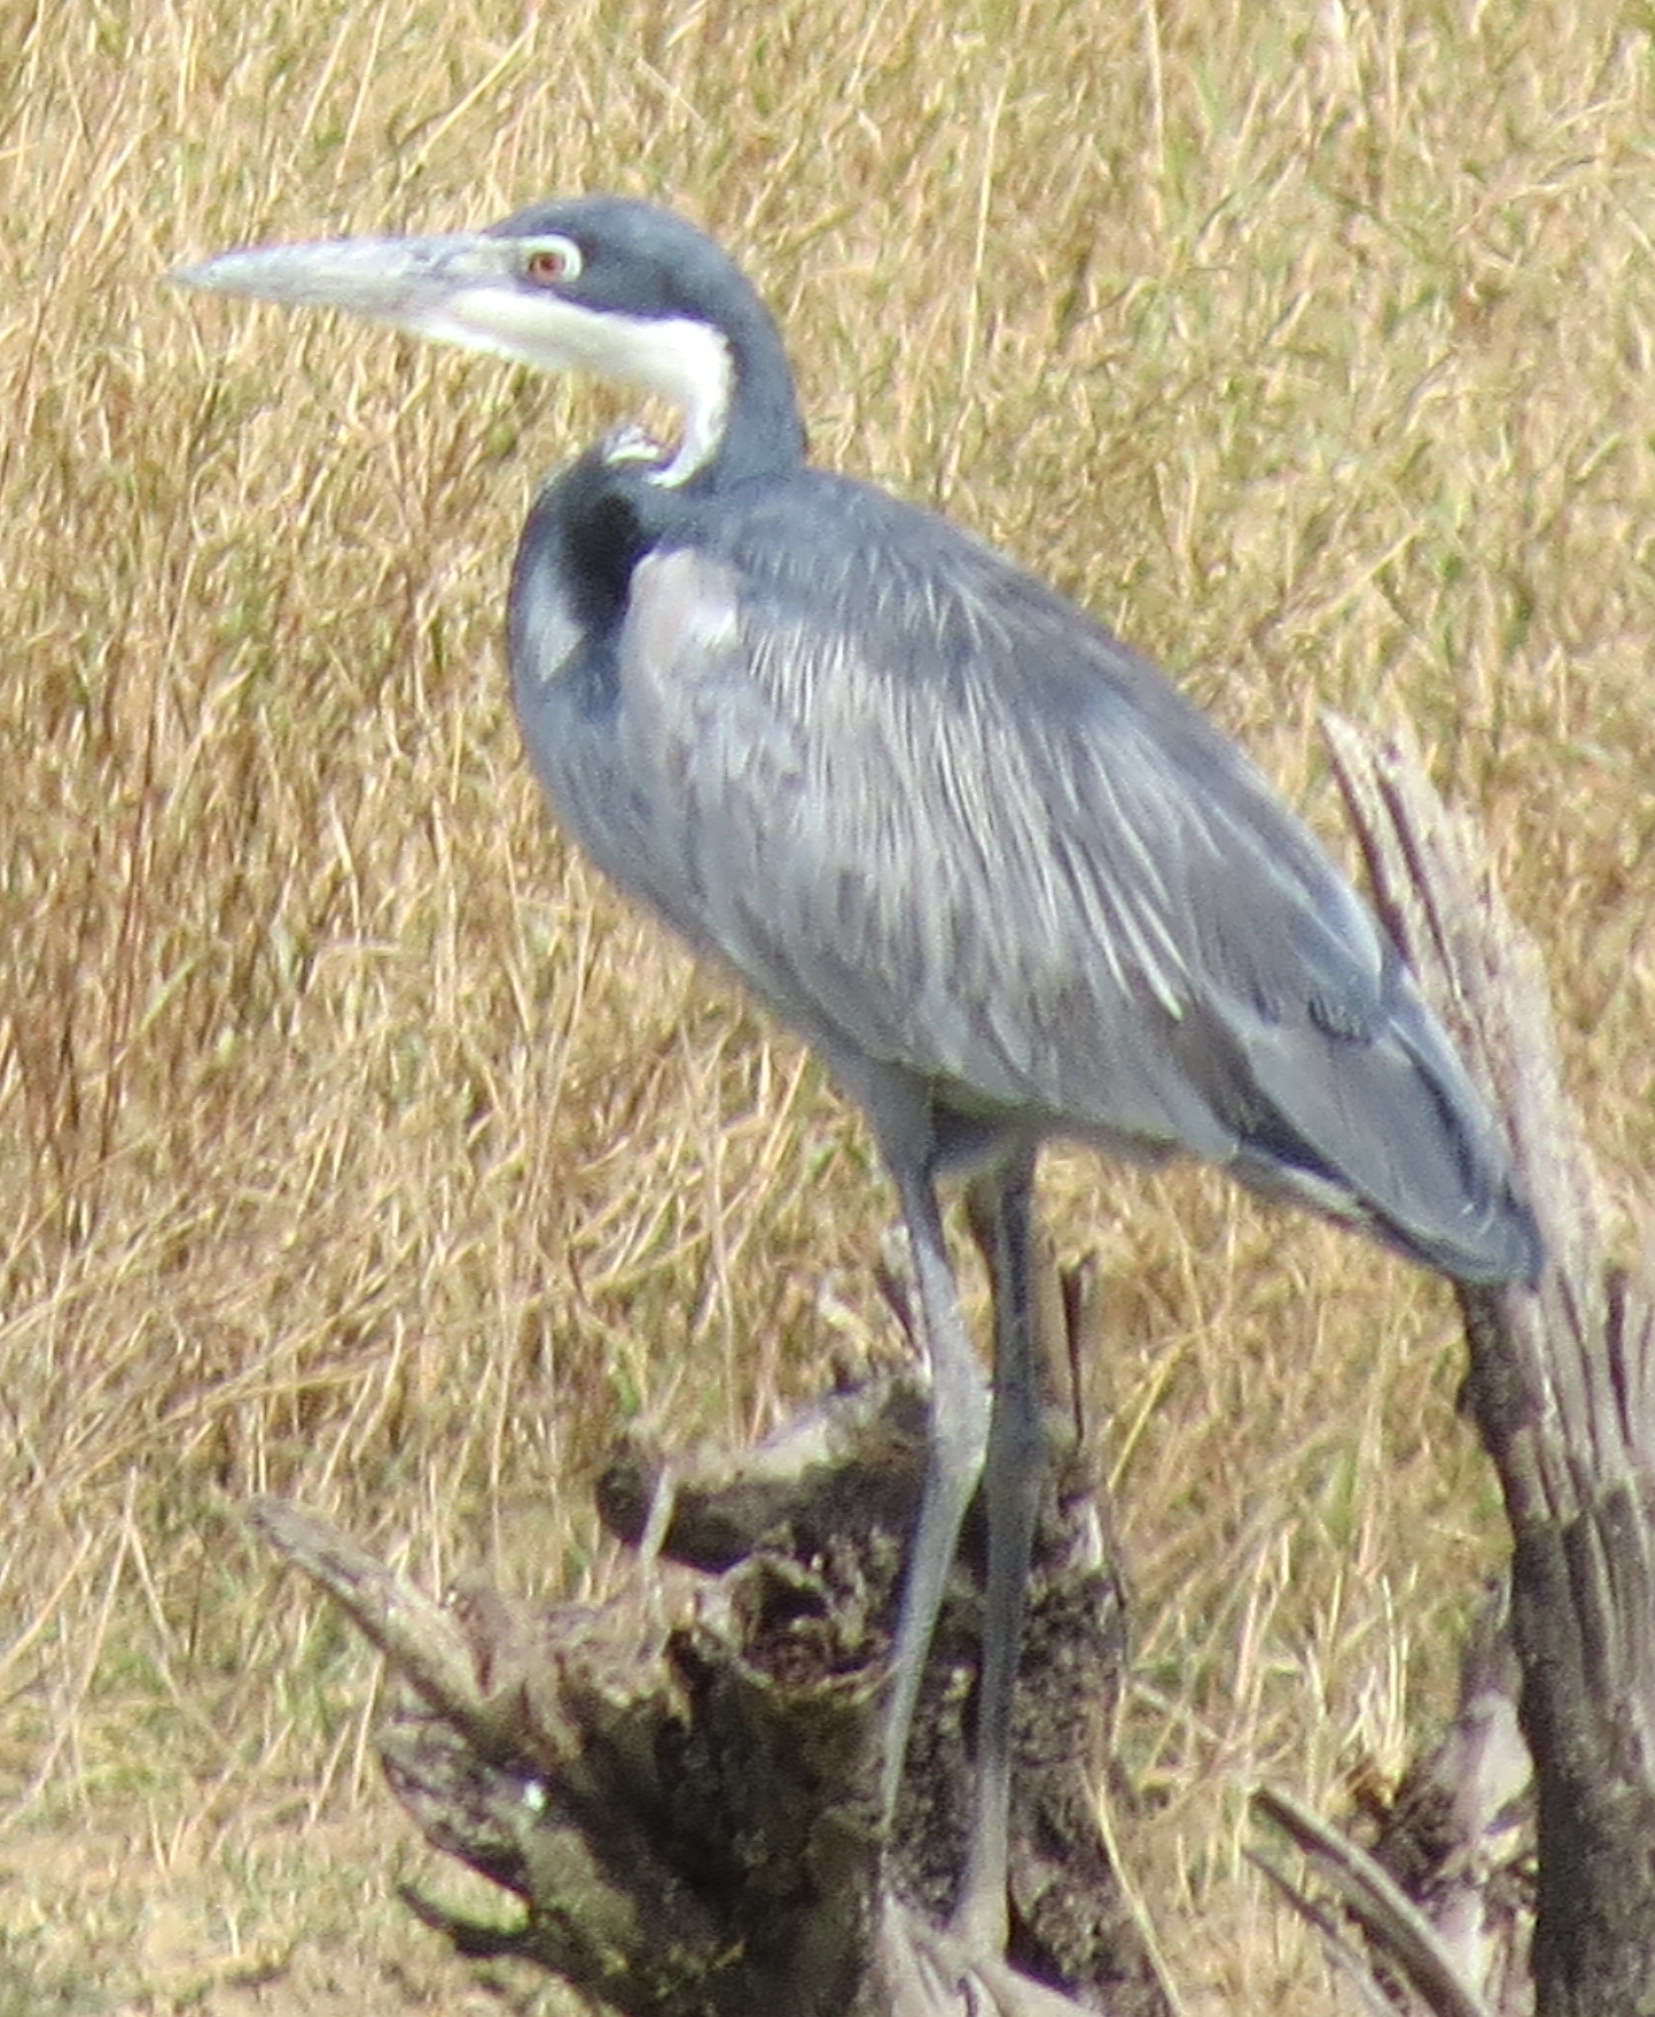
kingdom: Animalia
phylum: Chordata
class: Aves
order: Pelecaniformes
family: Ardeidae
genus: Ardea
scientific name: Ardea melanocephala
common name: Black-headed heron
